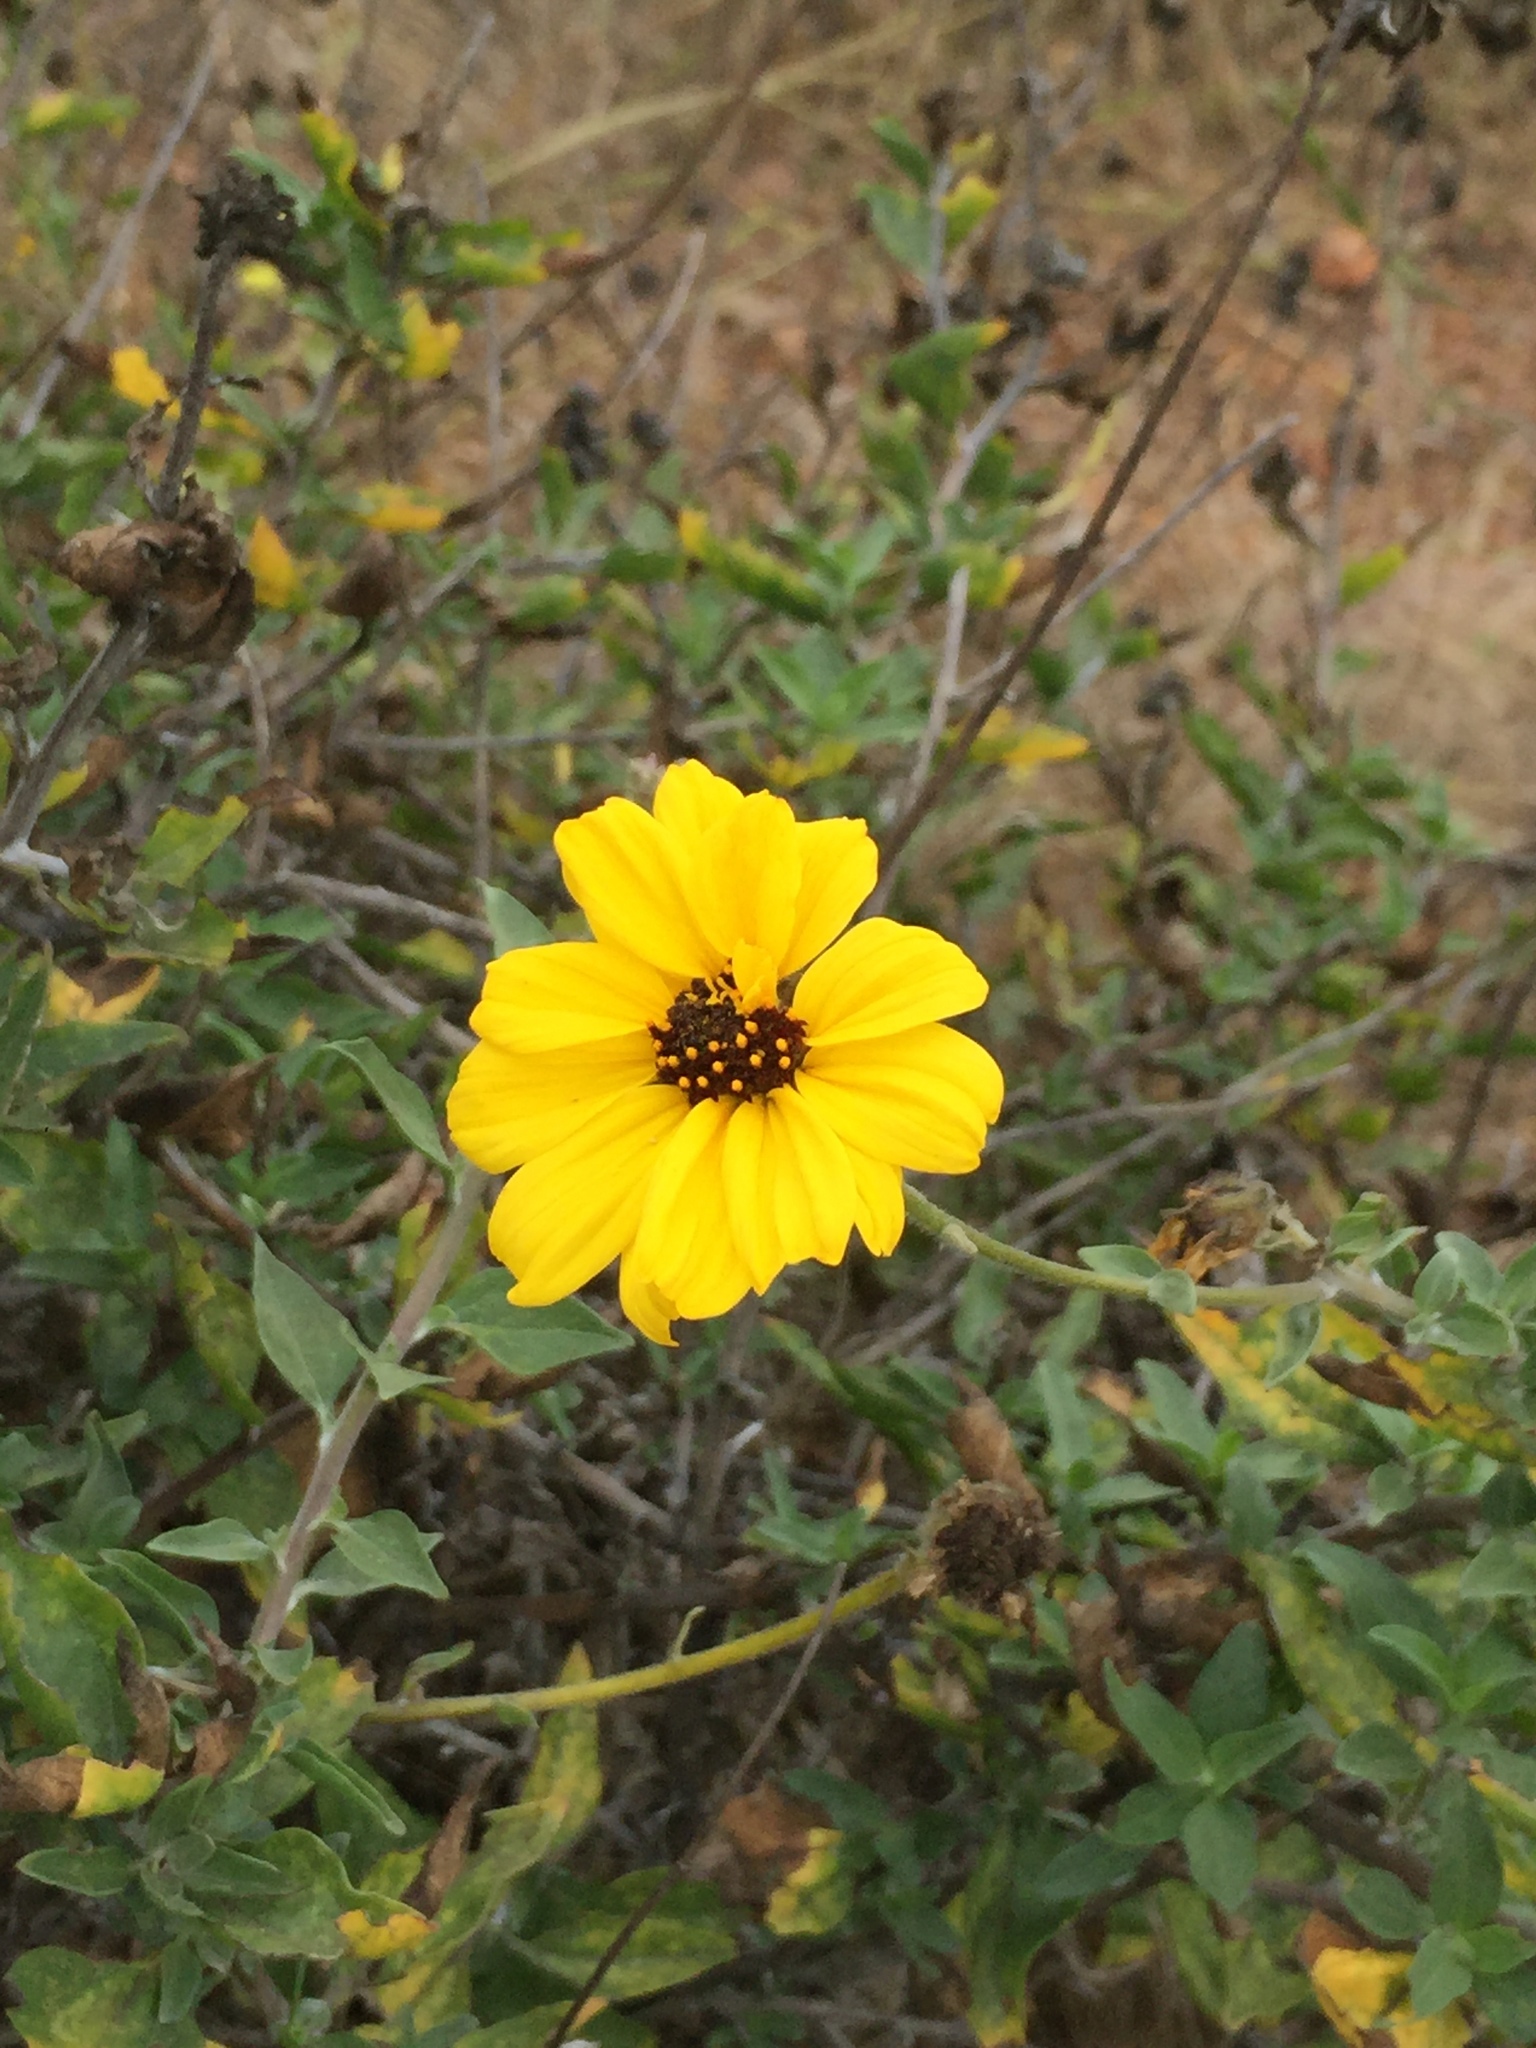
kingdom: Plantae
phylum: Tracheophyta
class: Magnoliopsida
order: Asterales
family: Asteraceae
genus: Encelia
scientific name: Encelia californica
